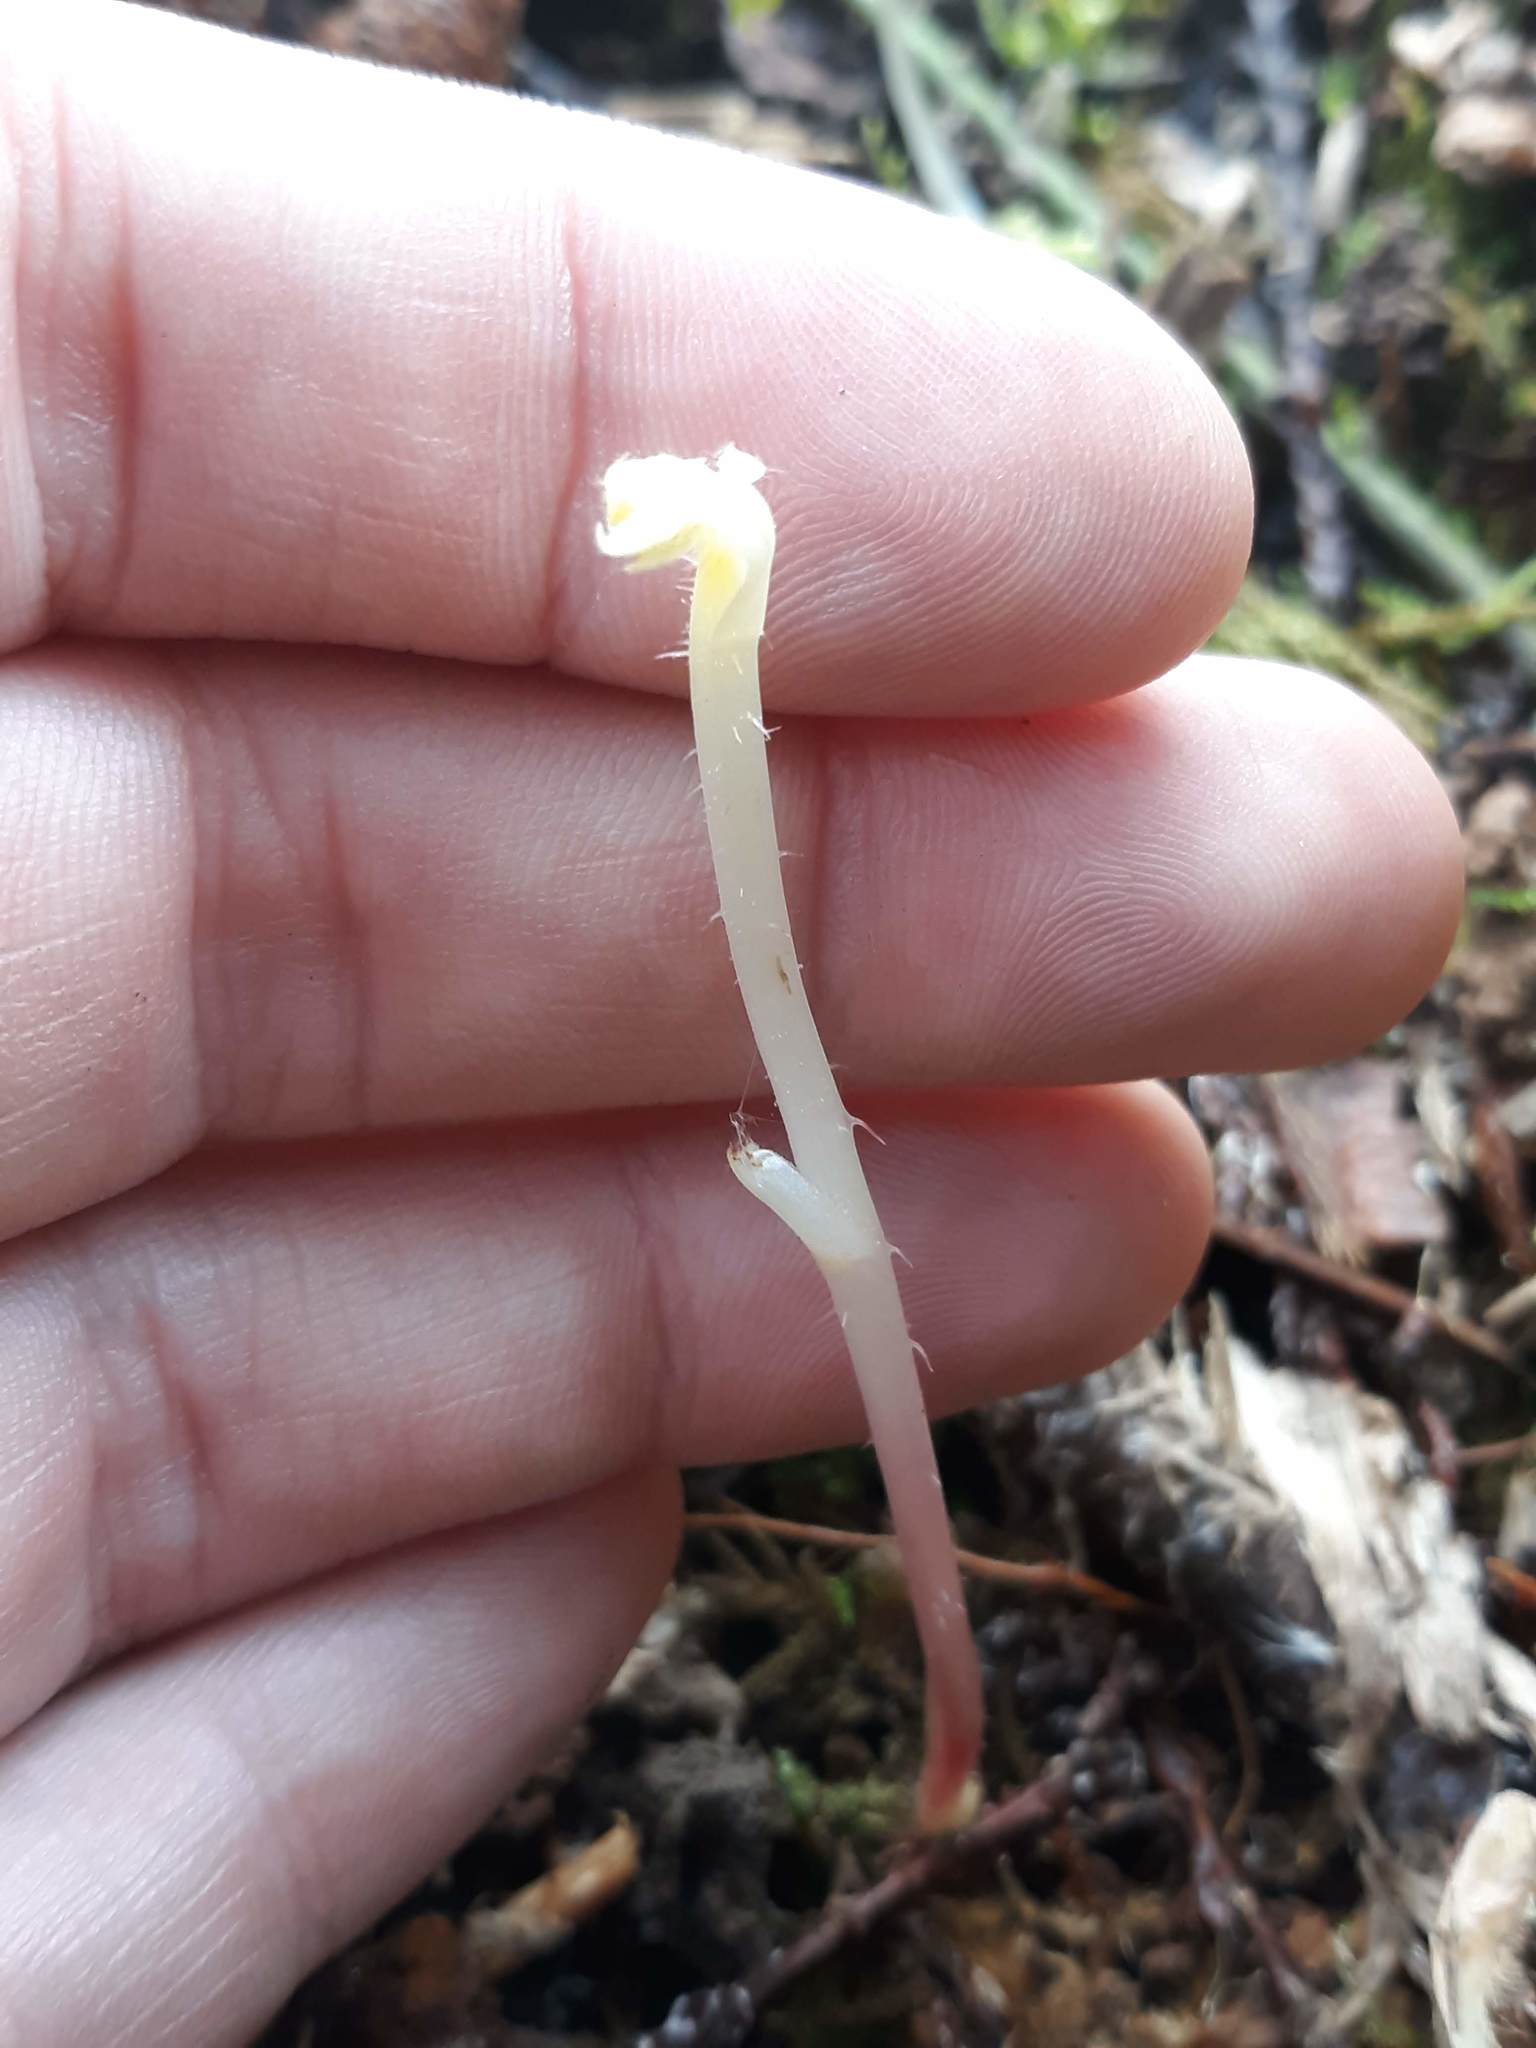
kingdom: Plantae
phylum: Tracheophyta
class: Magnoliopsida
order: Ericales
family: Ericaceae
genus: Gaultheria
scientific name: Gaultheria shallon
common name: Shallon
